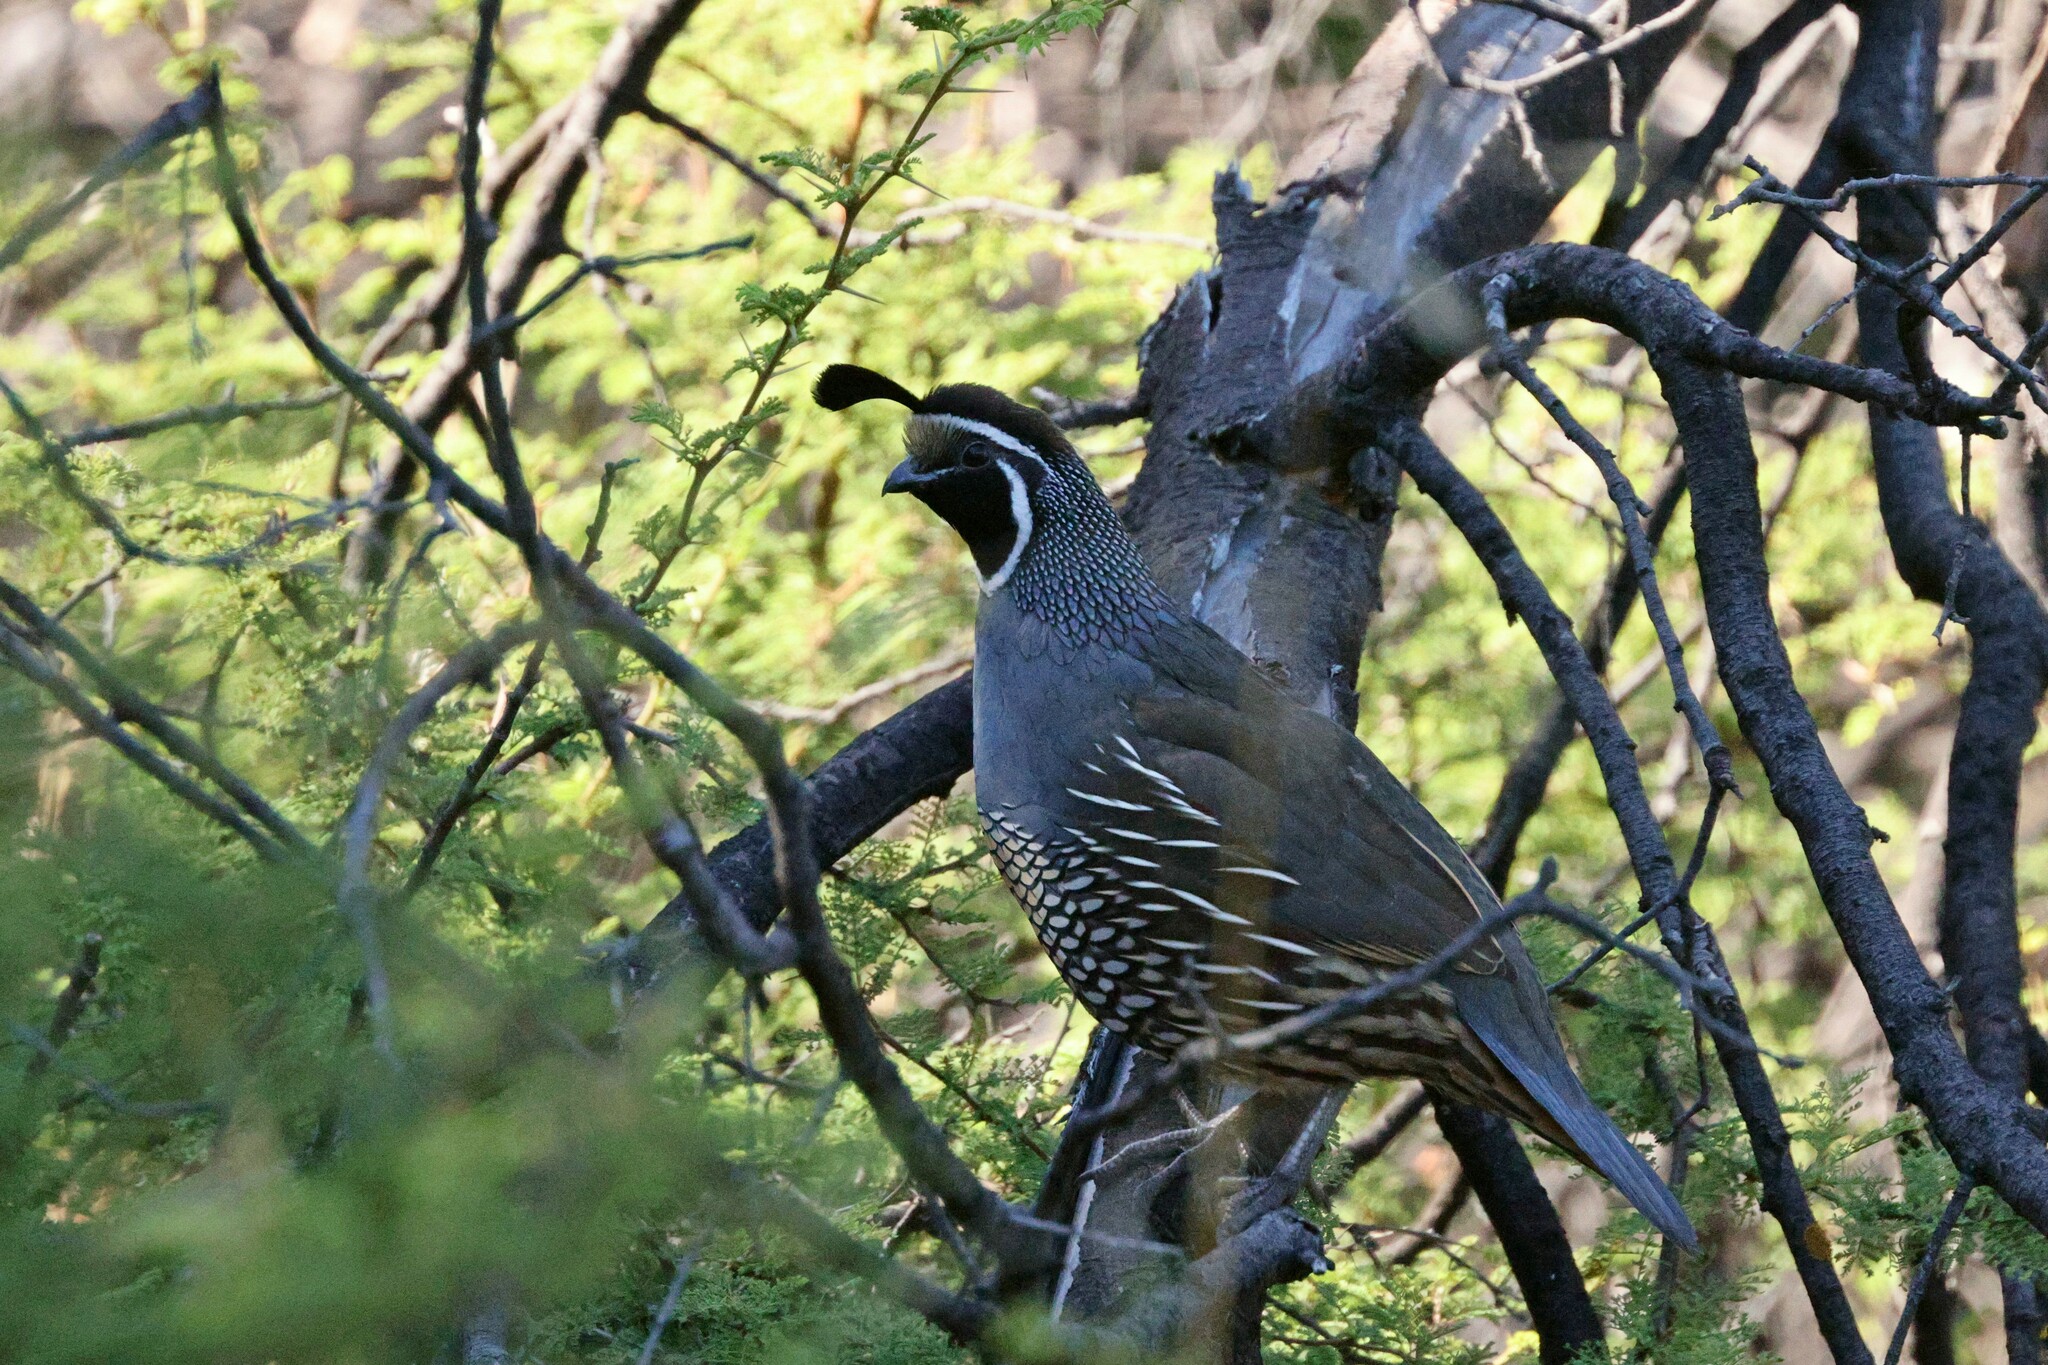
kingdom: Animalia
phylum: Chordata
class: Aves
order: Galliformes
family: Odontophoridae
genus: Callipepla
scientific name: Callipepla californica
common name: California quail
